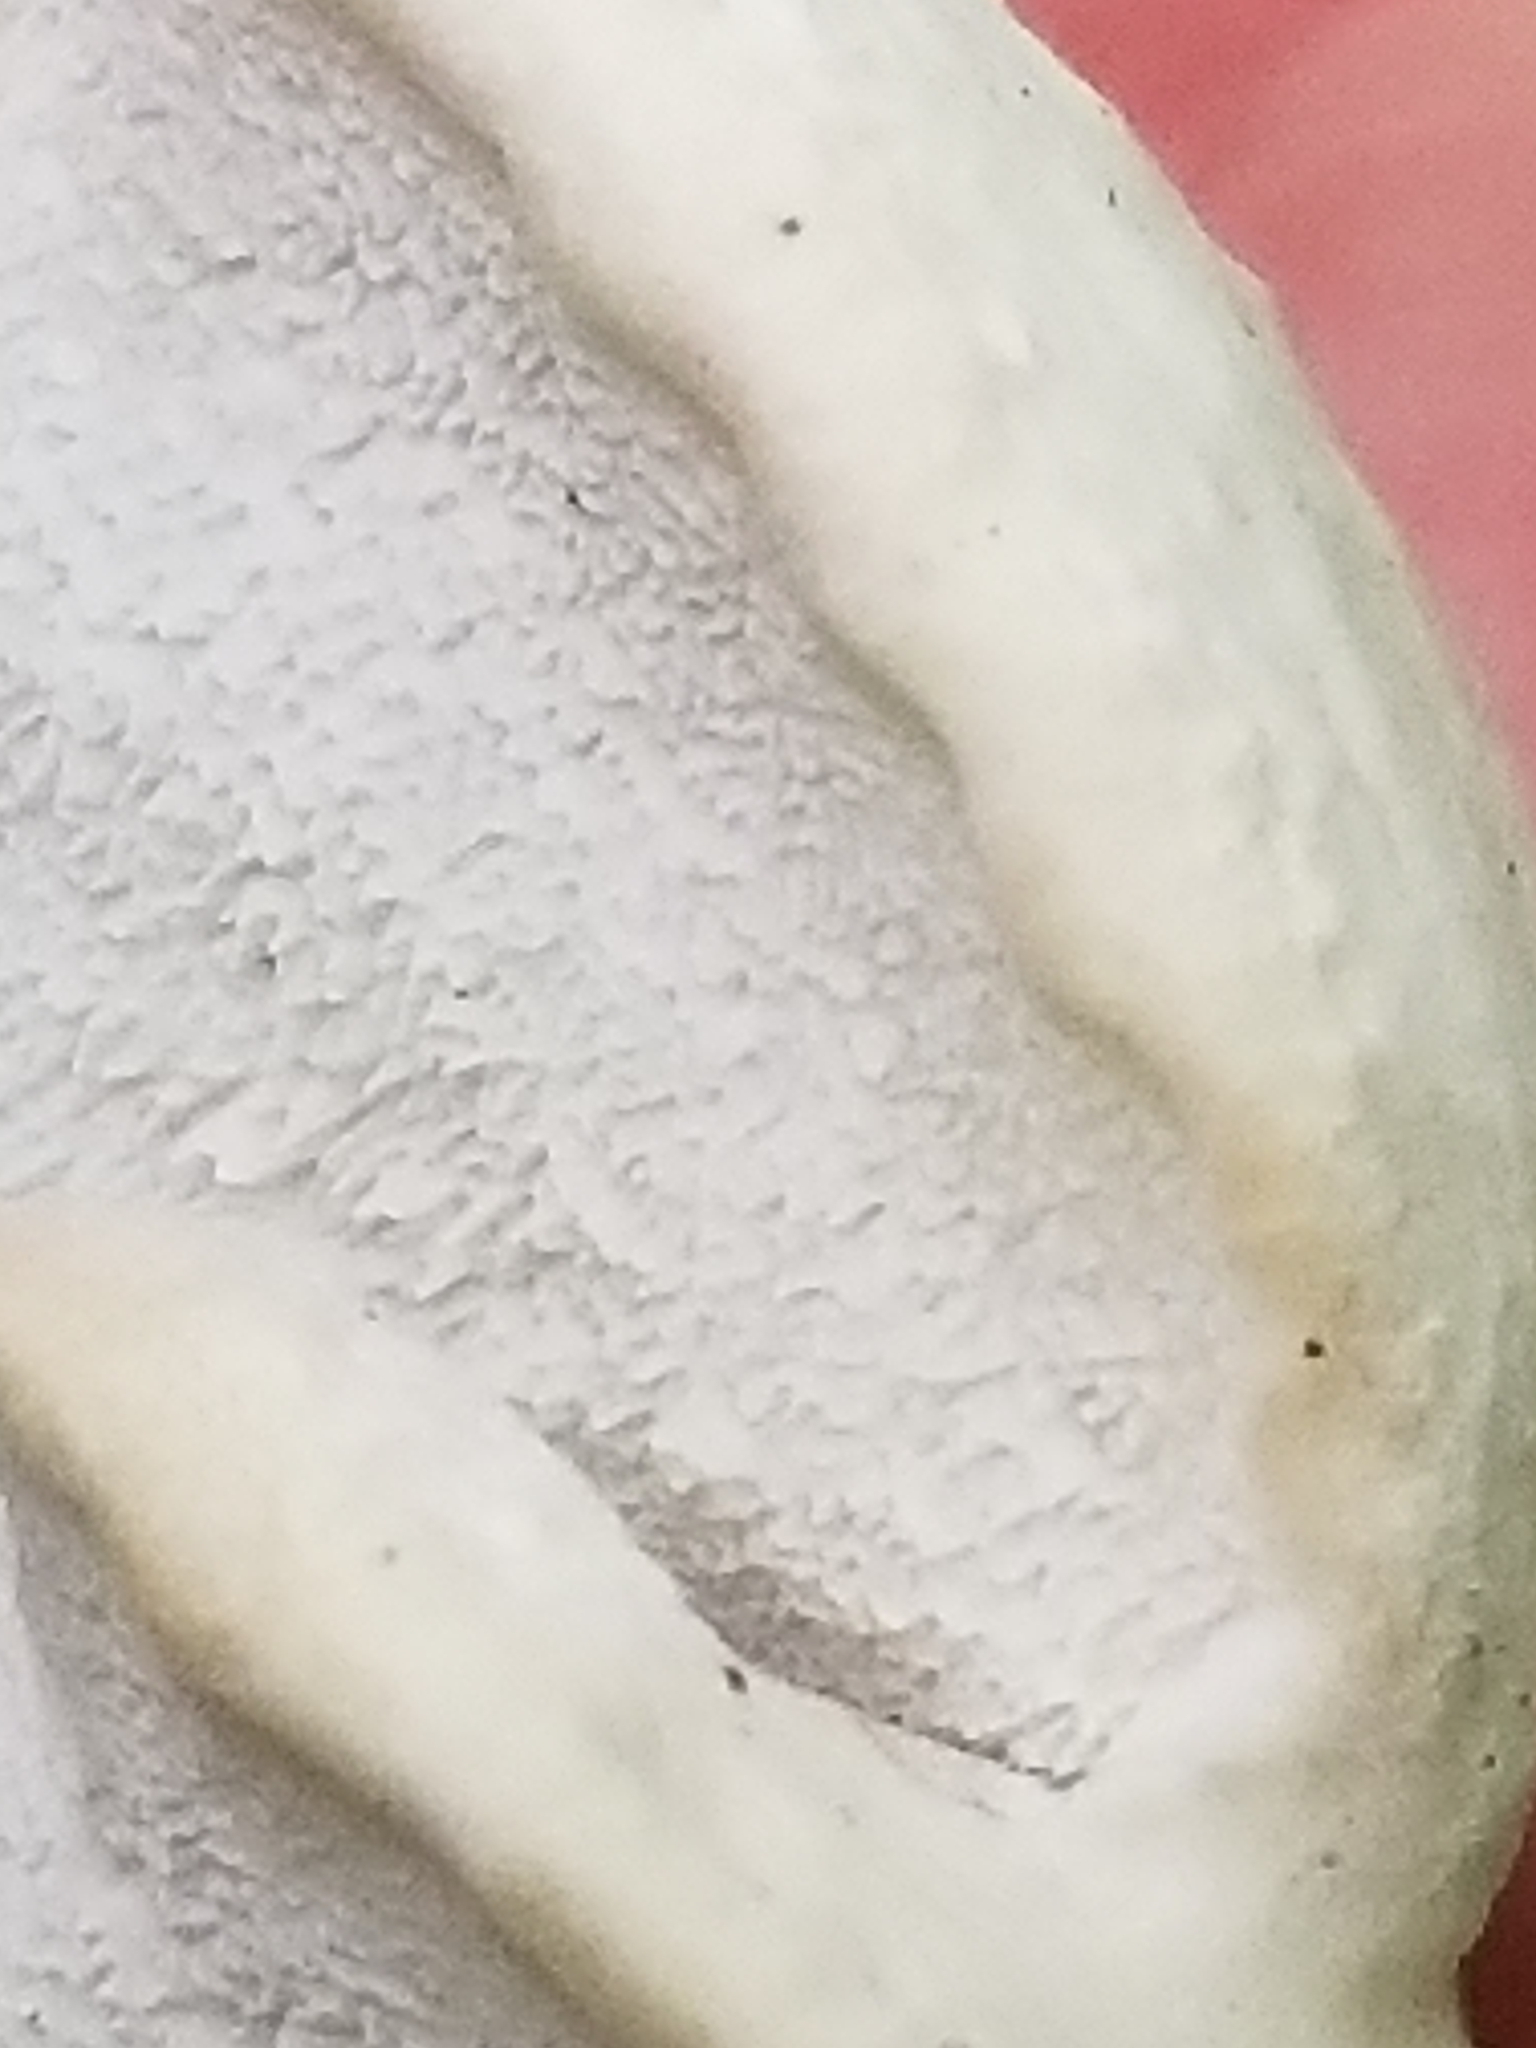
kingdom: Fungi
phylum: Basidiomycota
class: Agaricomycetes
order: Polyporales
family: Incrustoporiaceae
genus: Tyromyces
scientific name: Tyromyces chioneus
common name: White cheese polypore
